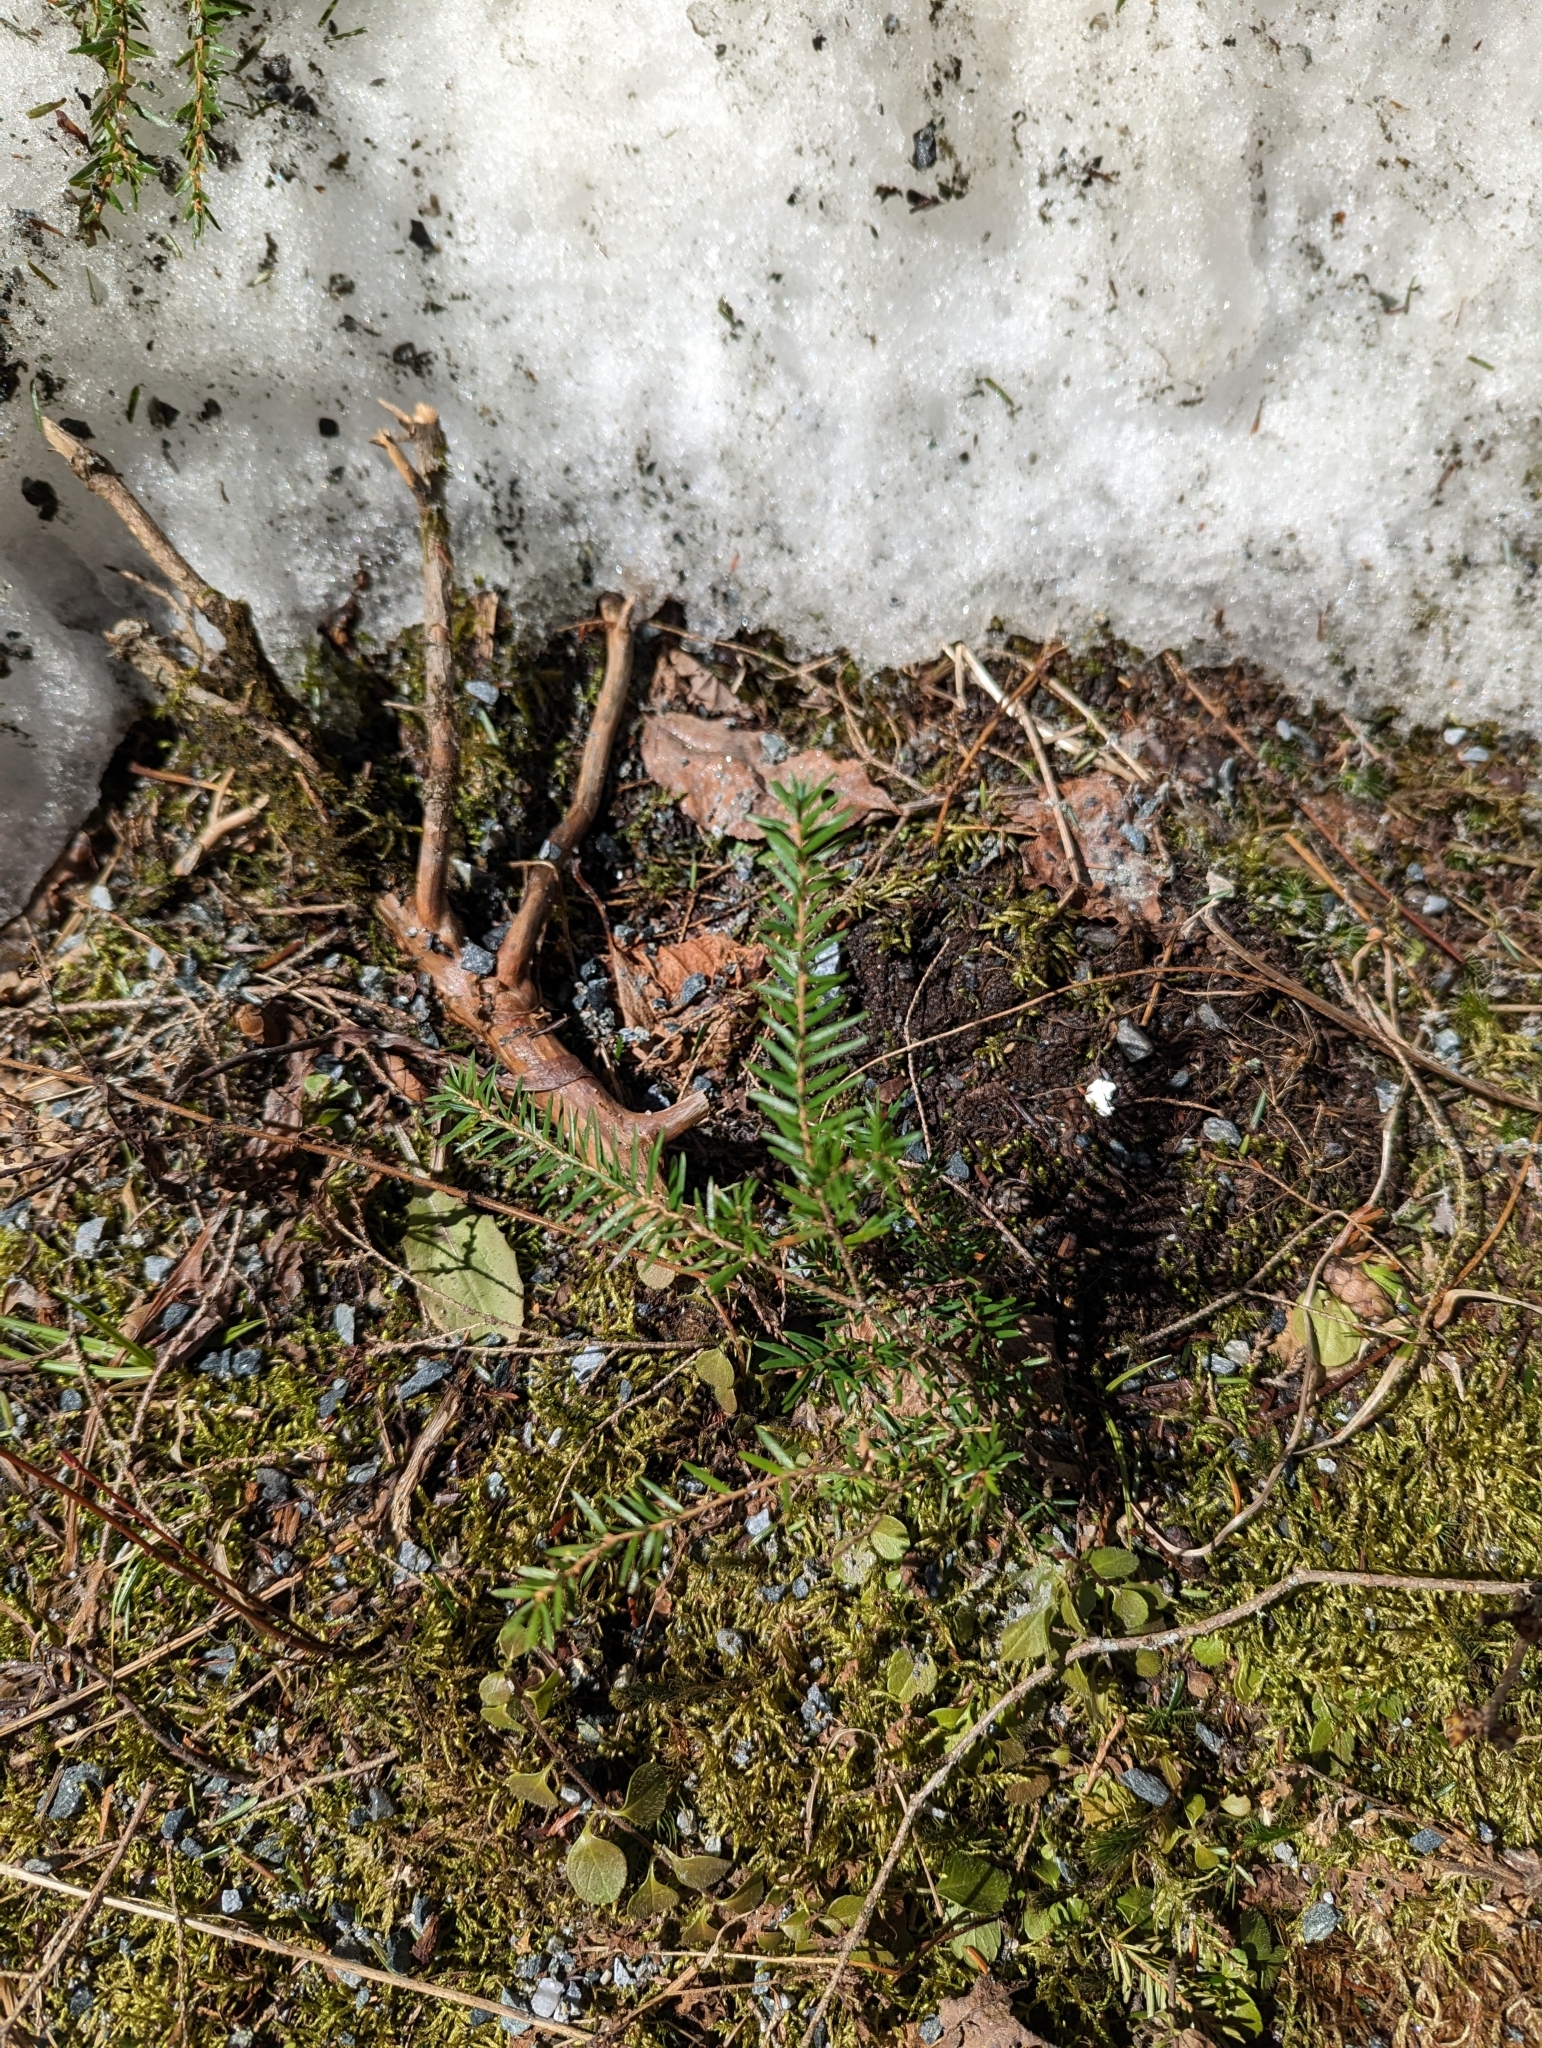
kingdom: Plantae
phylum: Tracheophyta
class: Pinopsida
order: Pinales
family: Pinaceae
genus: Tsuga
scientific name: Tsuga canadensis
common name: Eastern hemlock
